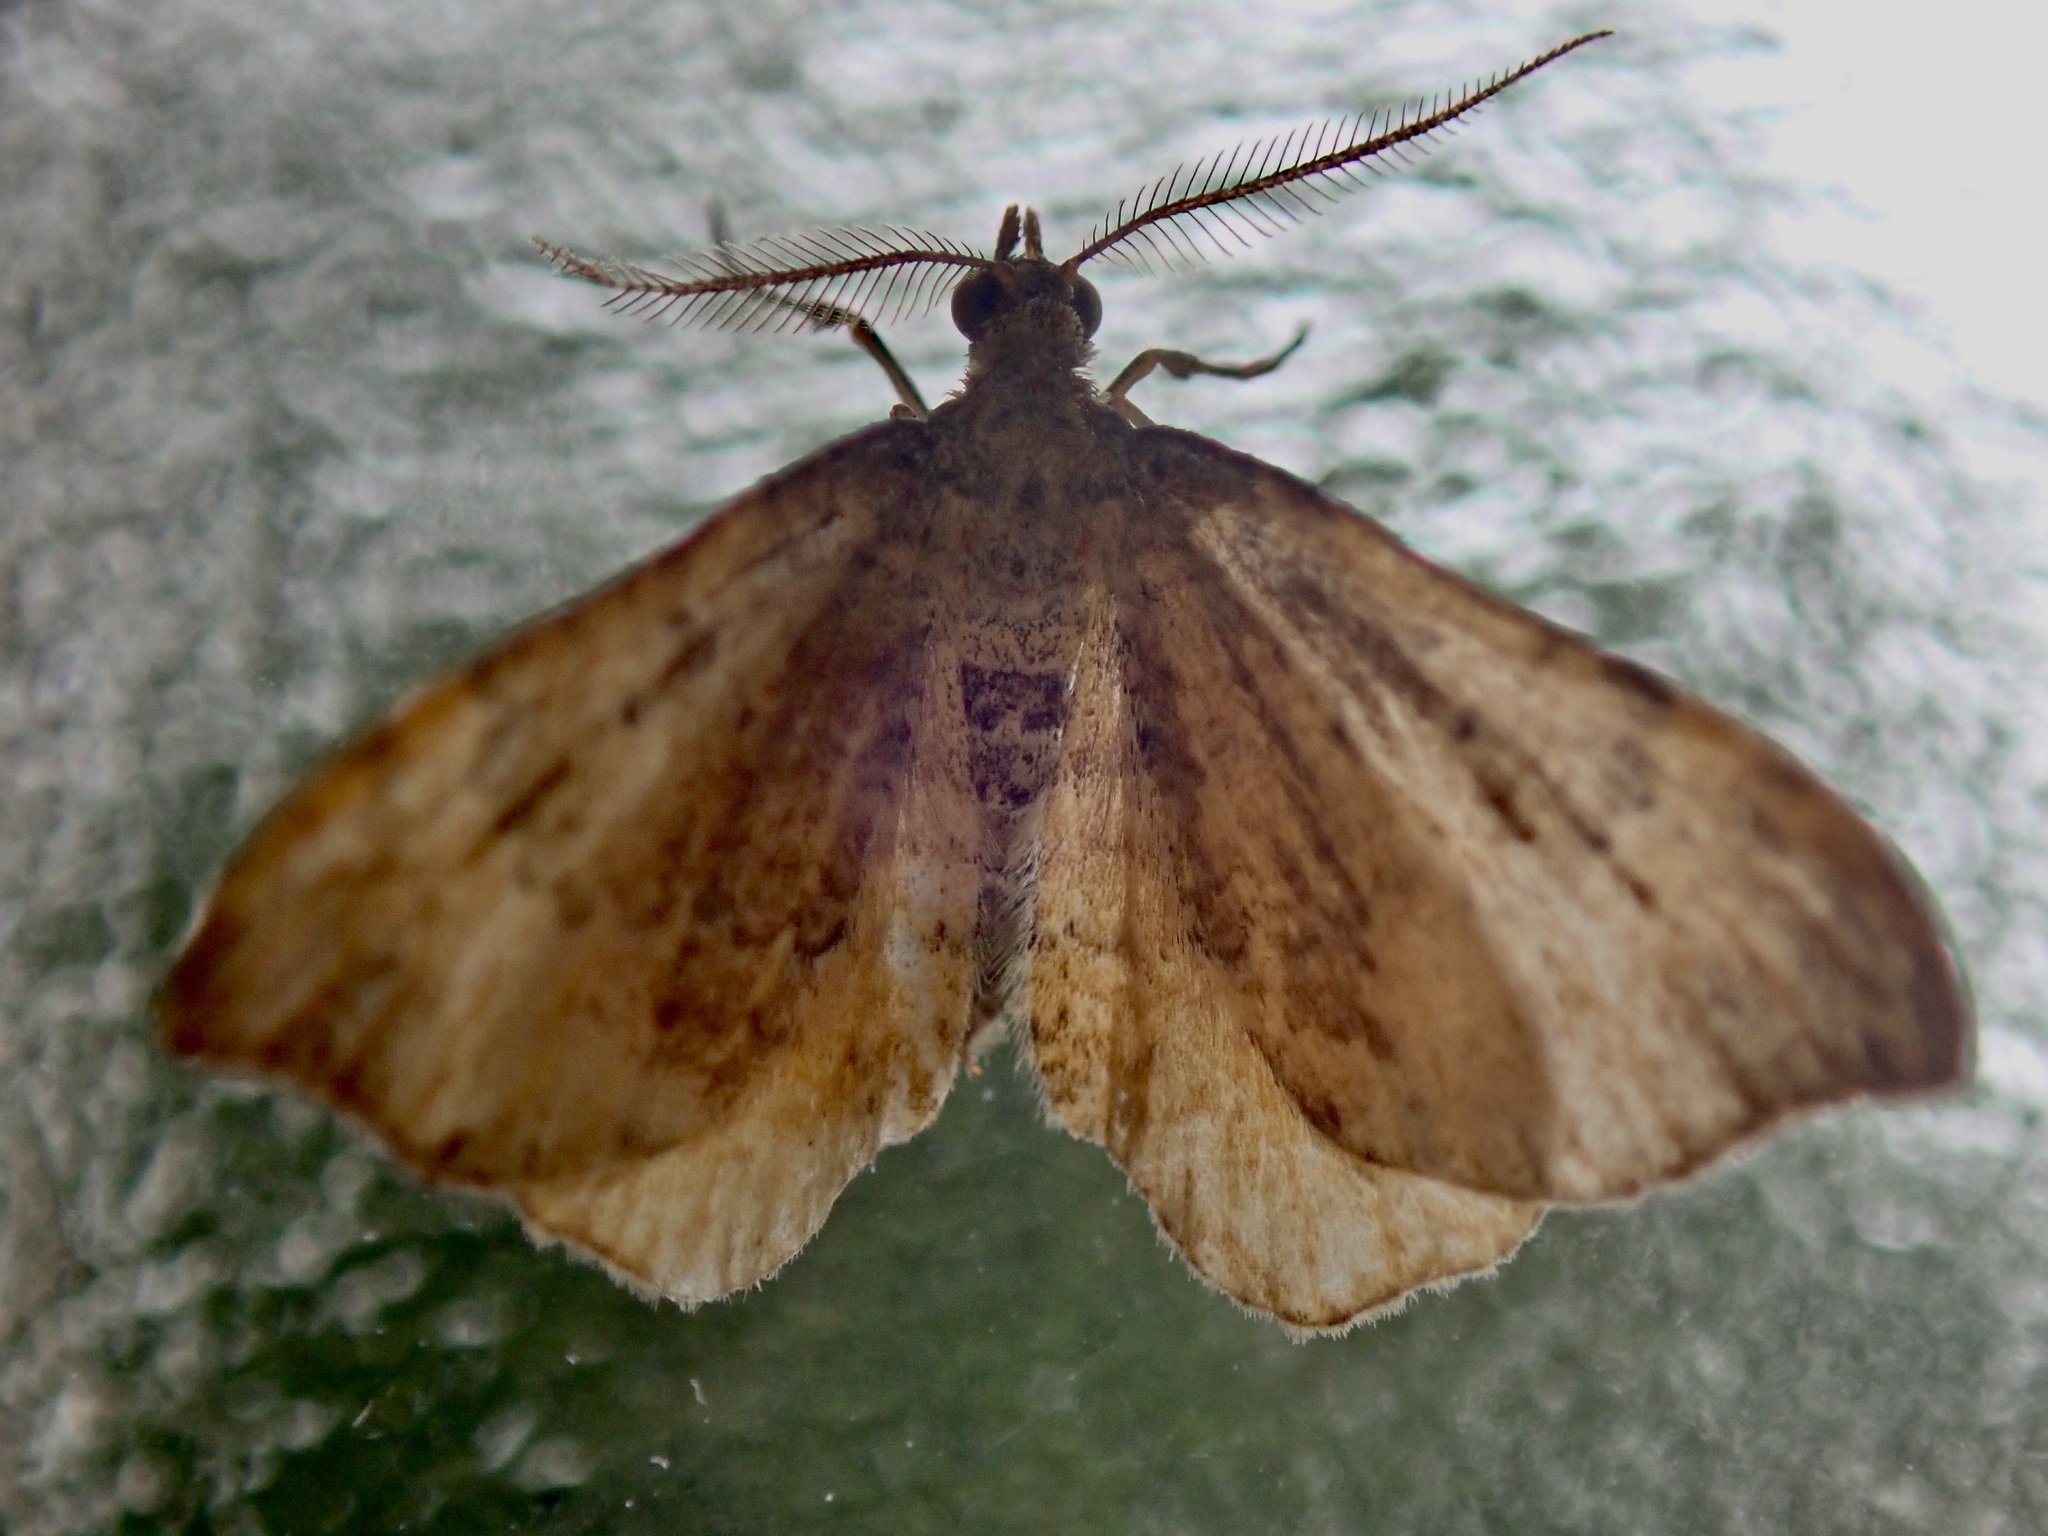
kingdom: Animalia
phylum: Arthropoda
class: Insecta
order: Lepidoptera
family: Geometridae
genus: Homodotis
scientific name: Homodotis megaspilata
